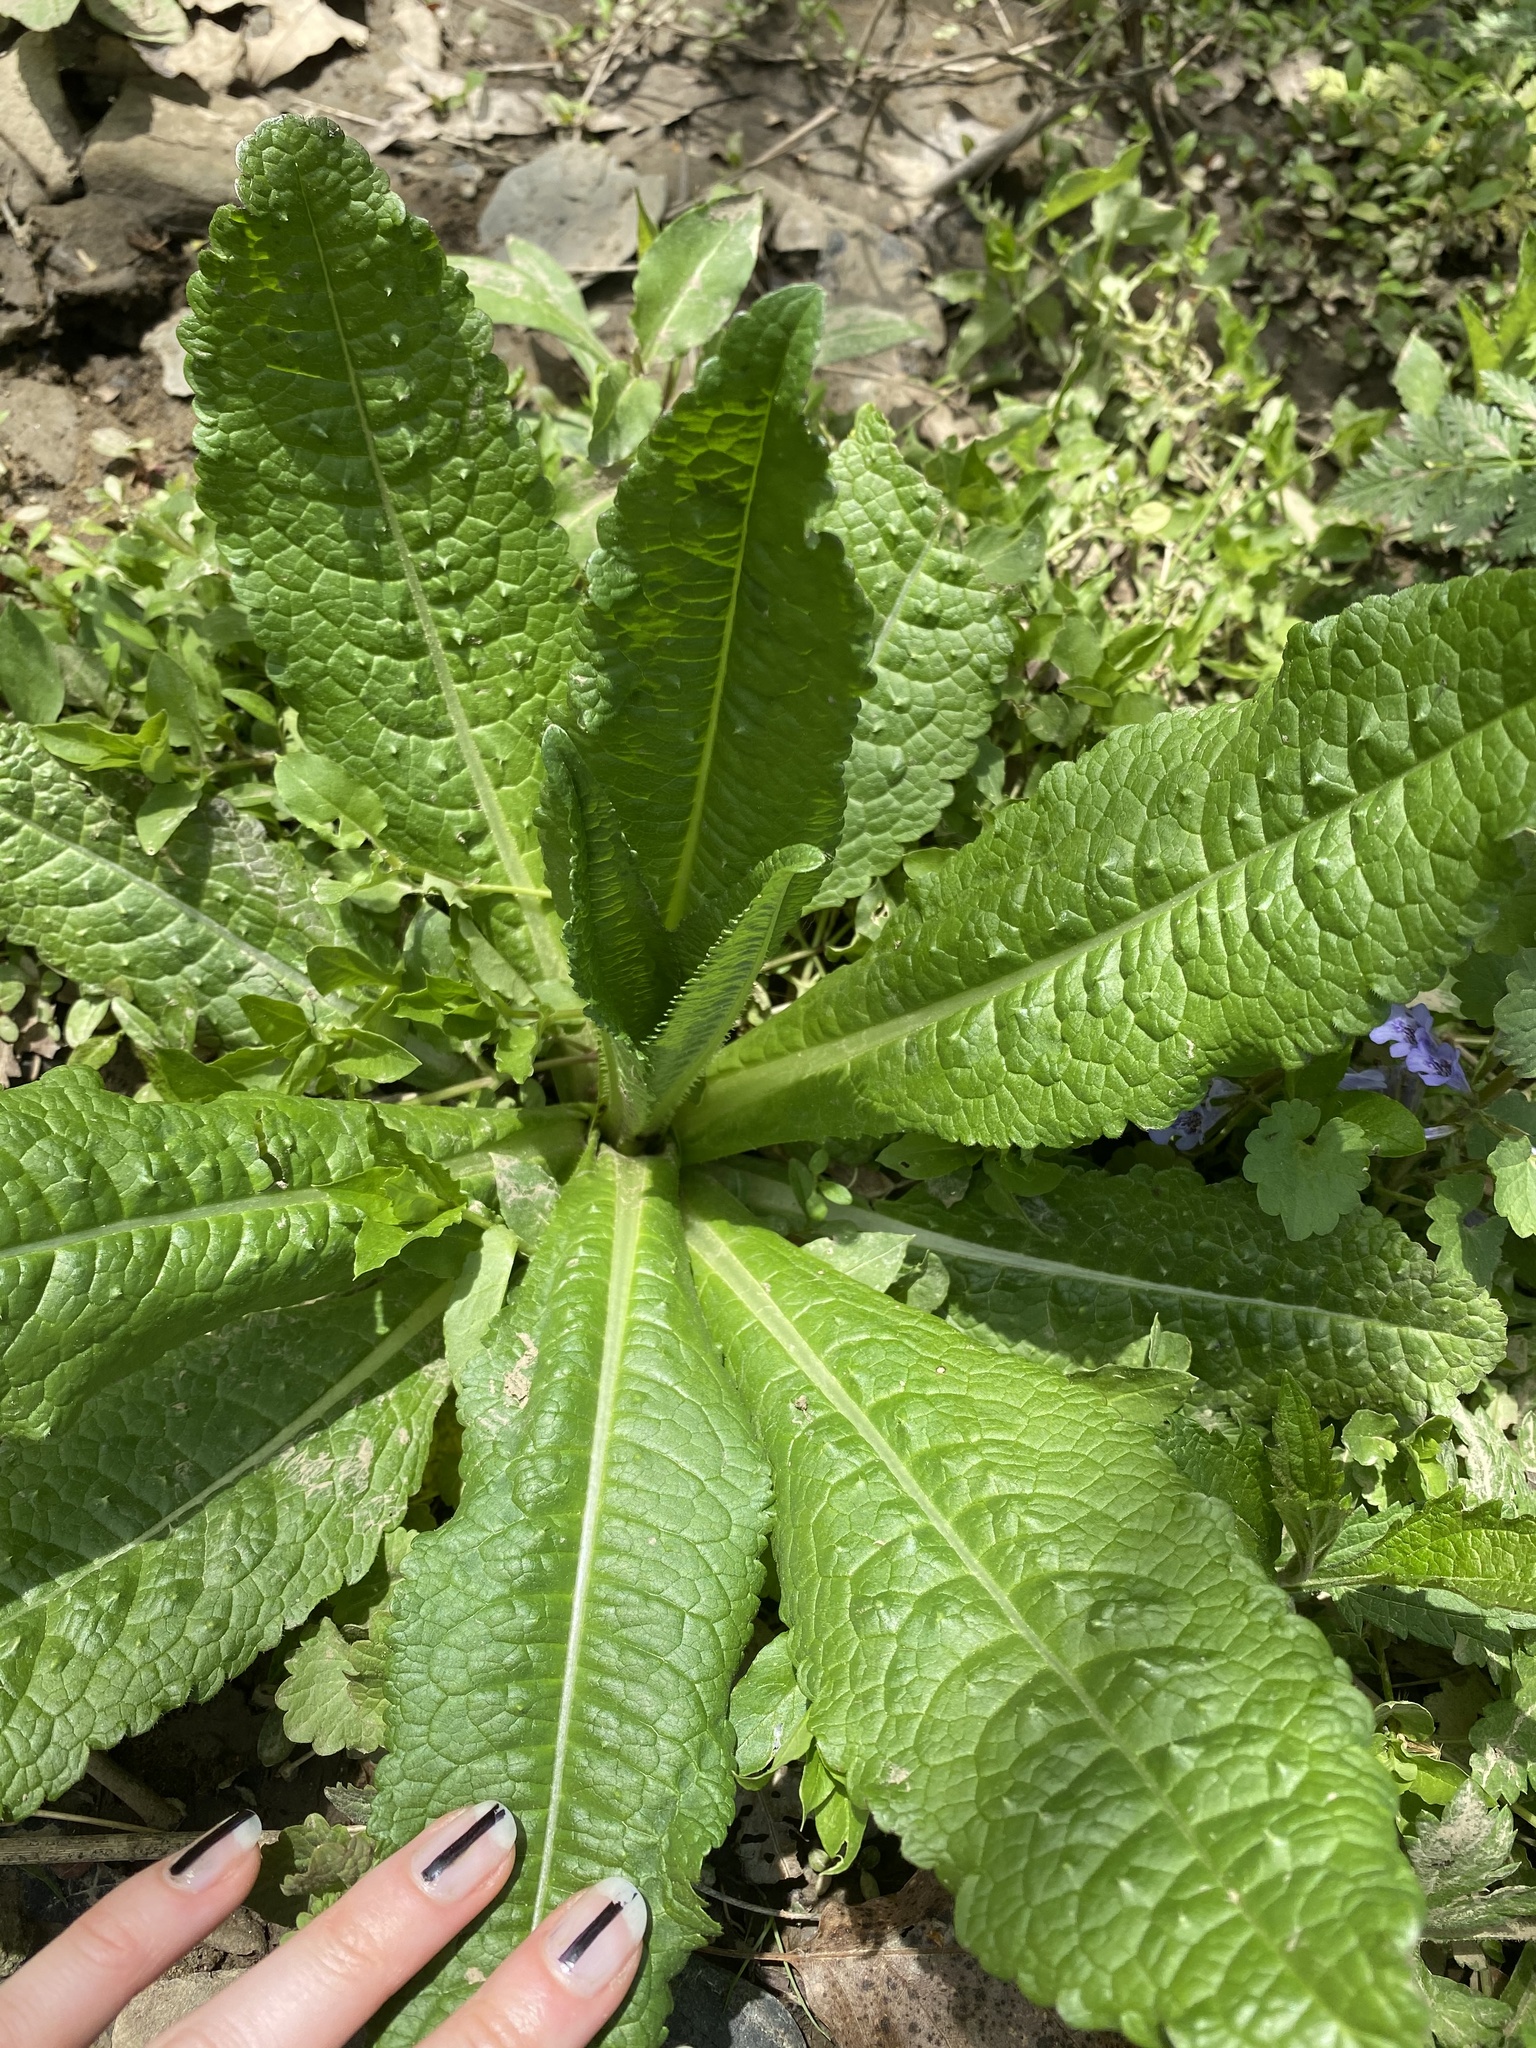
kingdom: Plantae
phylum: Tracheophyta
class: Magnoliopsida
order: Dipsacales
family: Caprifoliaceae
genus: Dipsacus
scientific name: Dipsacus fullonum
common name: Teasel
